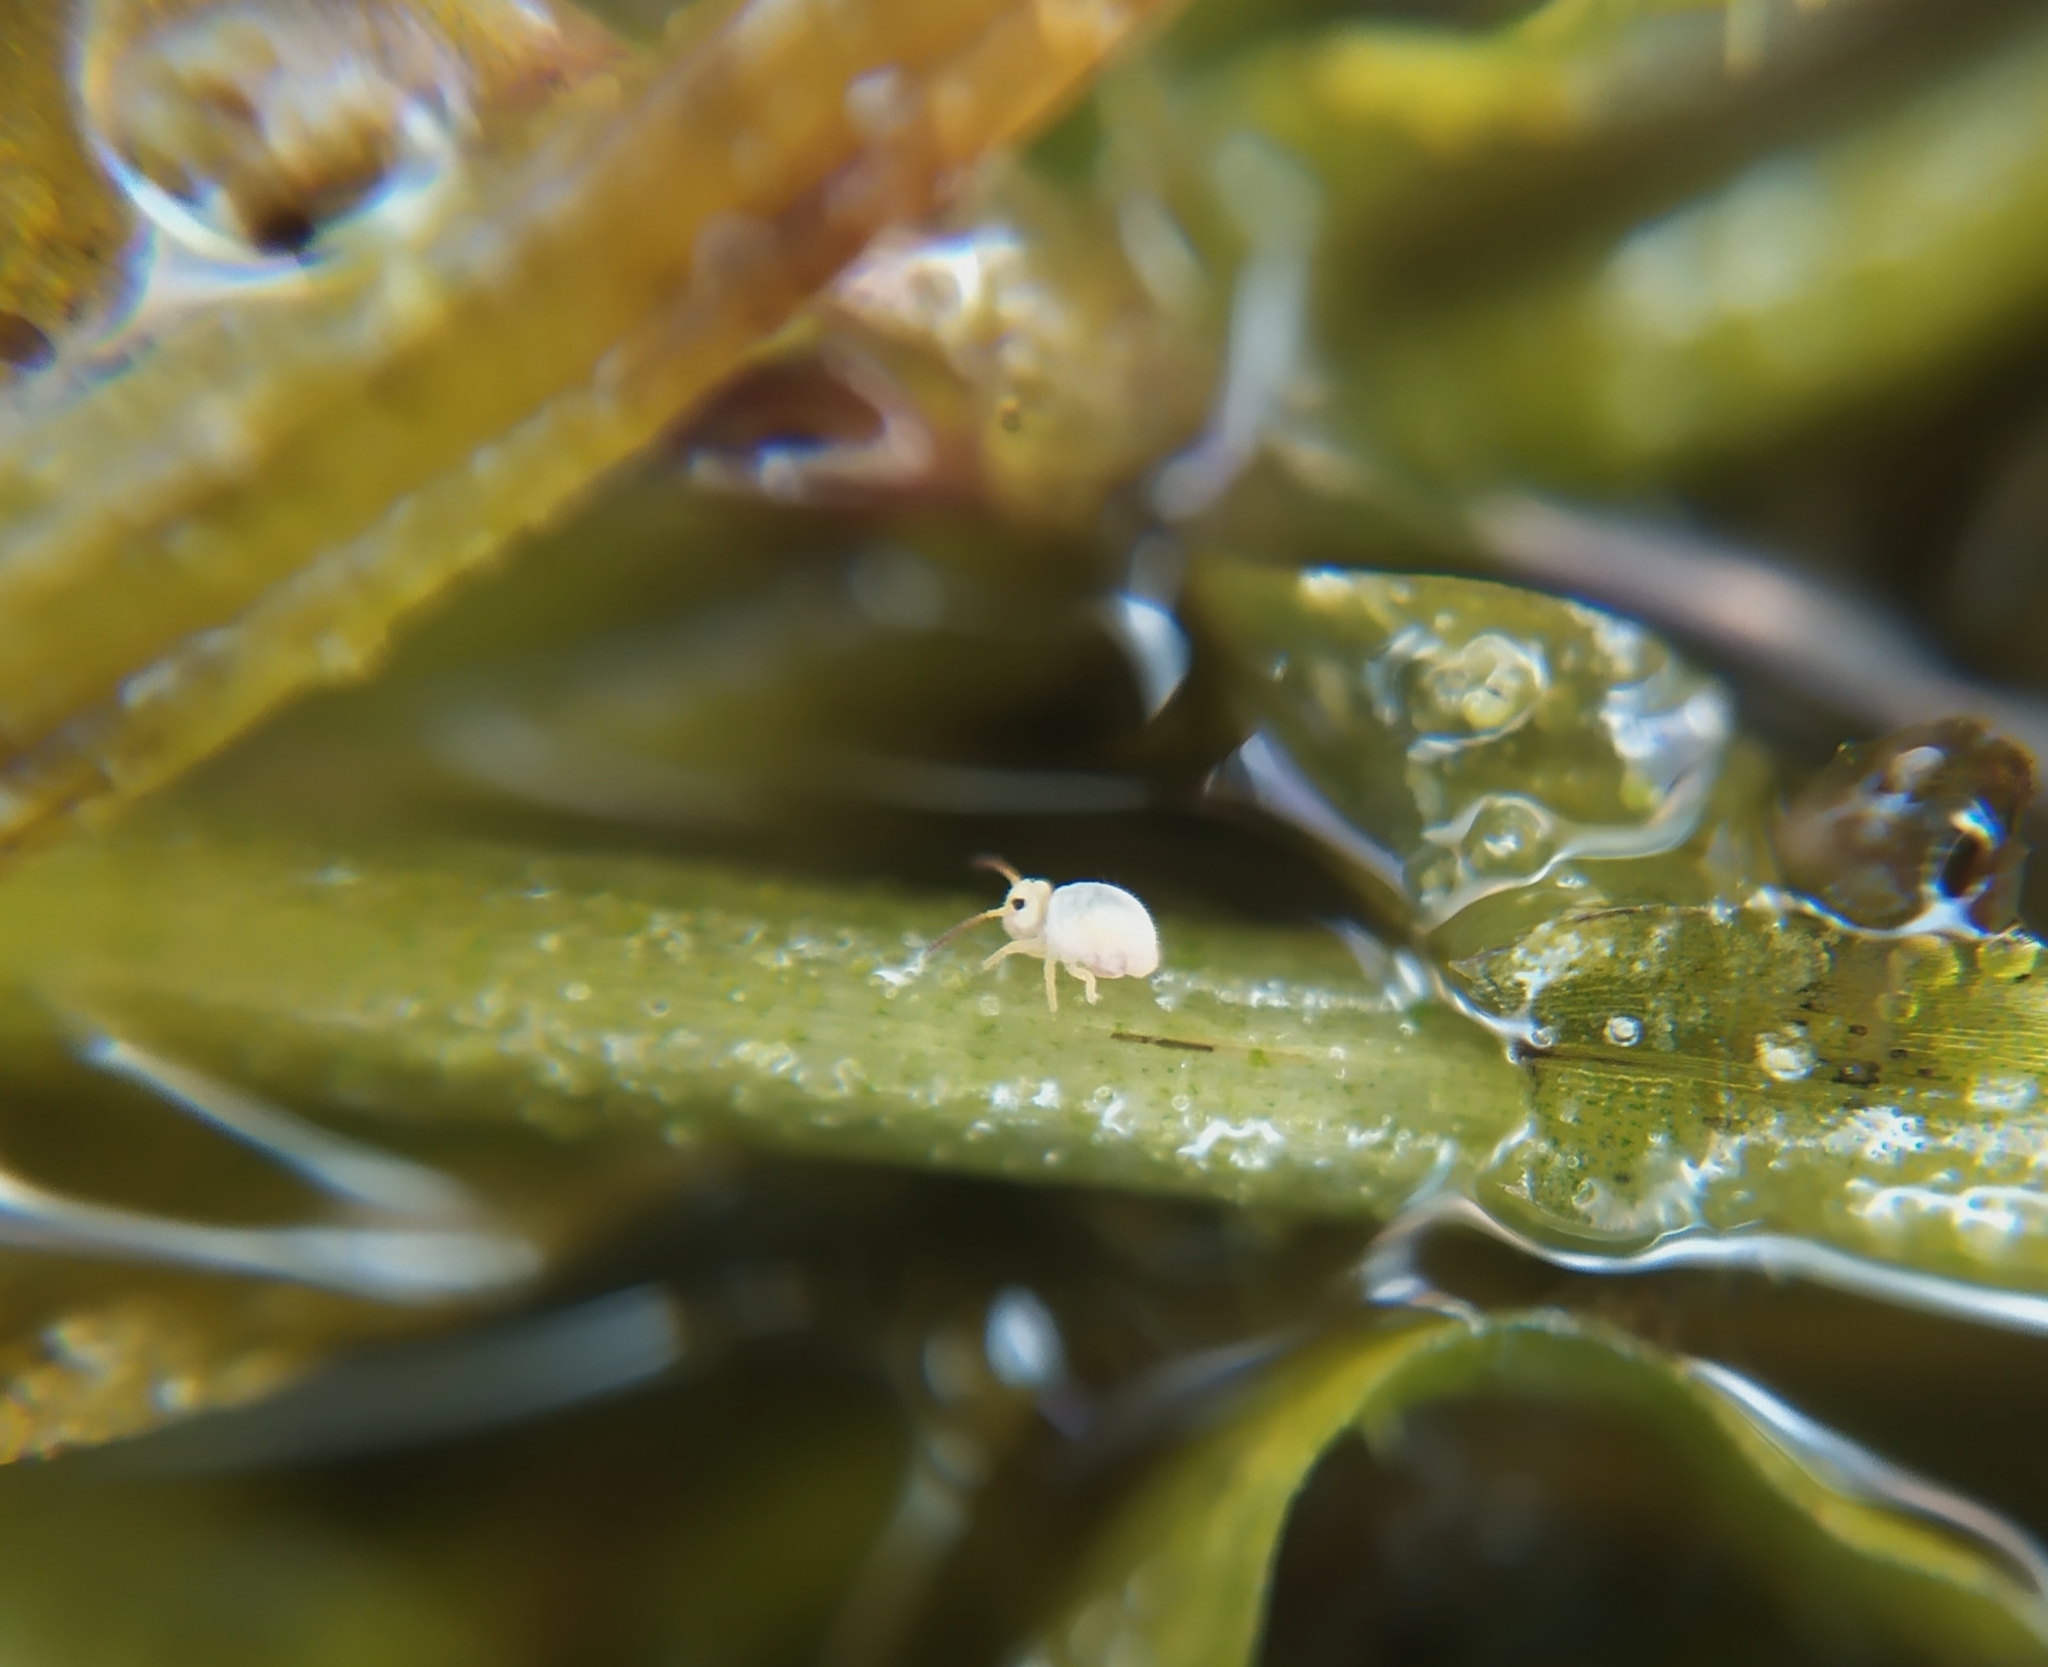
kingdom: Animalia
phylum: Arthropoda
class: Collembola
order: Symphypleona
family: Sminthurididae
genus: Sminthurides
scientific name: Sminthurides aquaticus
